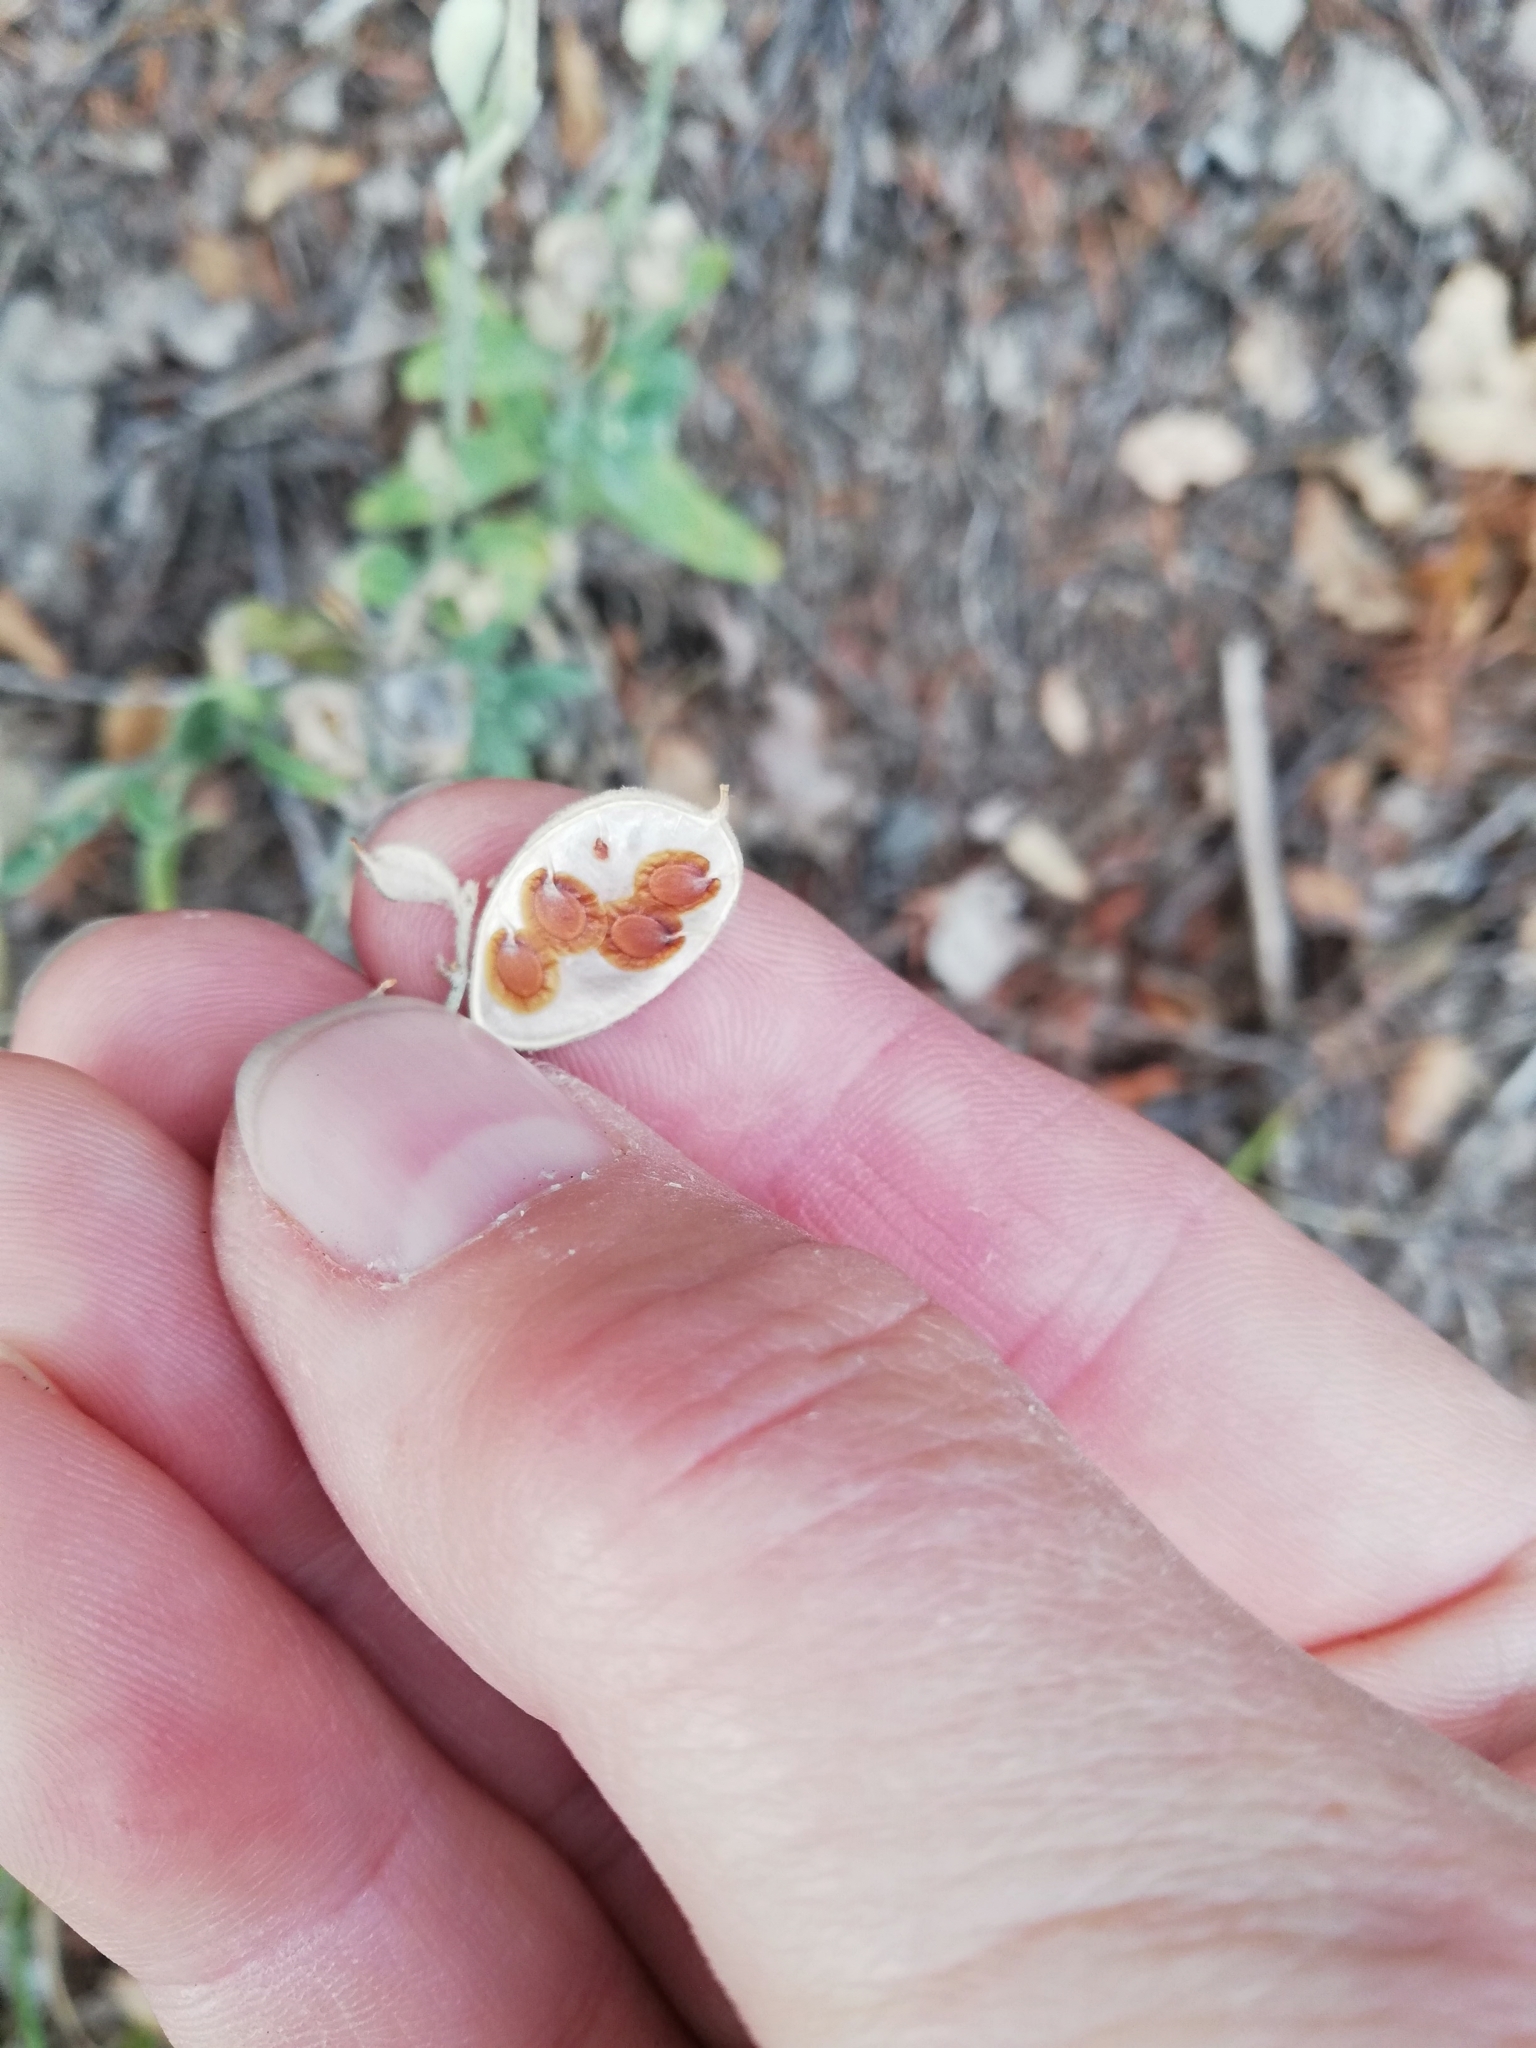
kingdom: Plantae
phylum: Tracheophyta
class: Magnoliopsida
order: Brassicales
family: Brassicaceae
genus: Fibigia
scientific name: Fibigia clypeata
